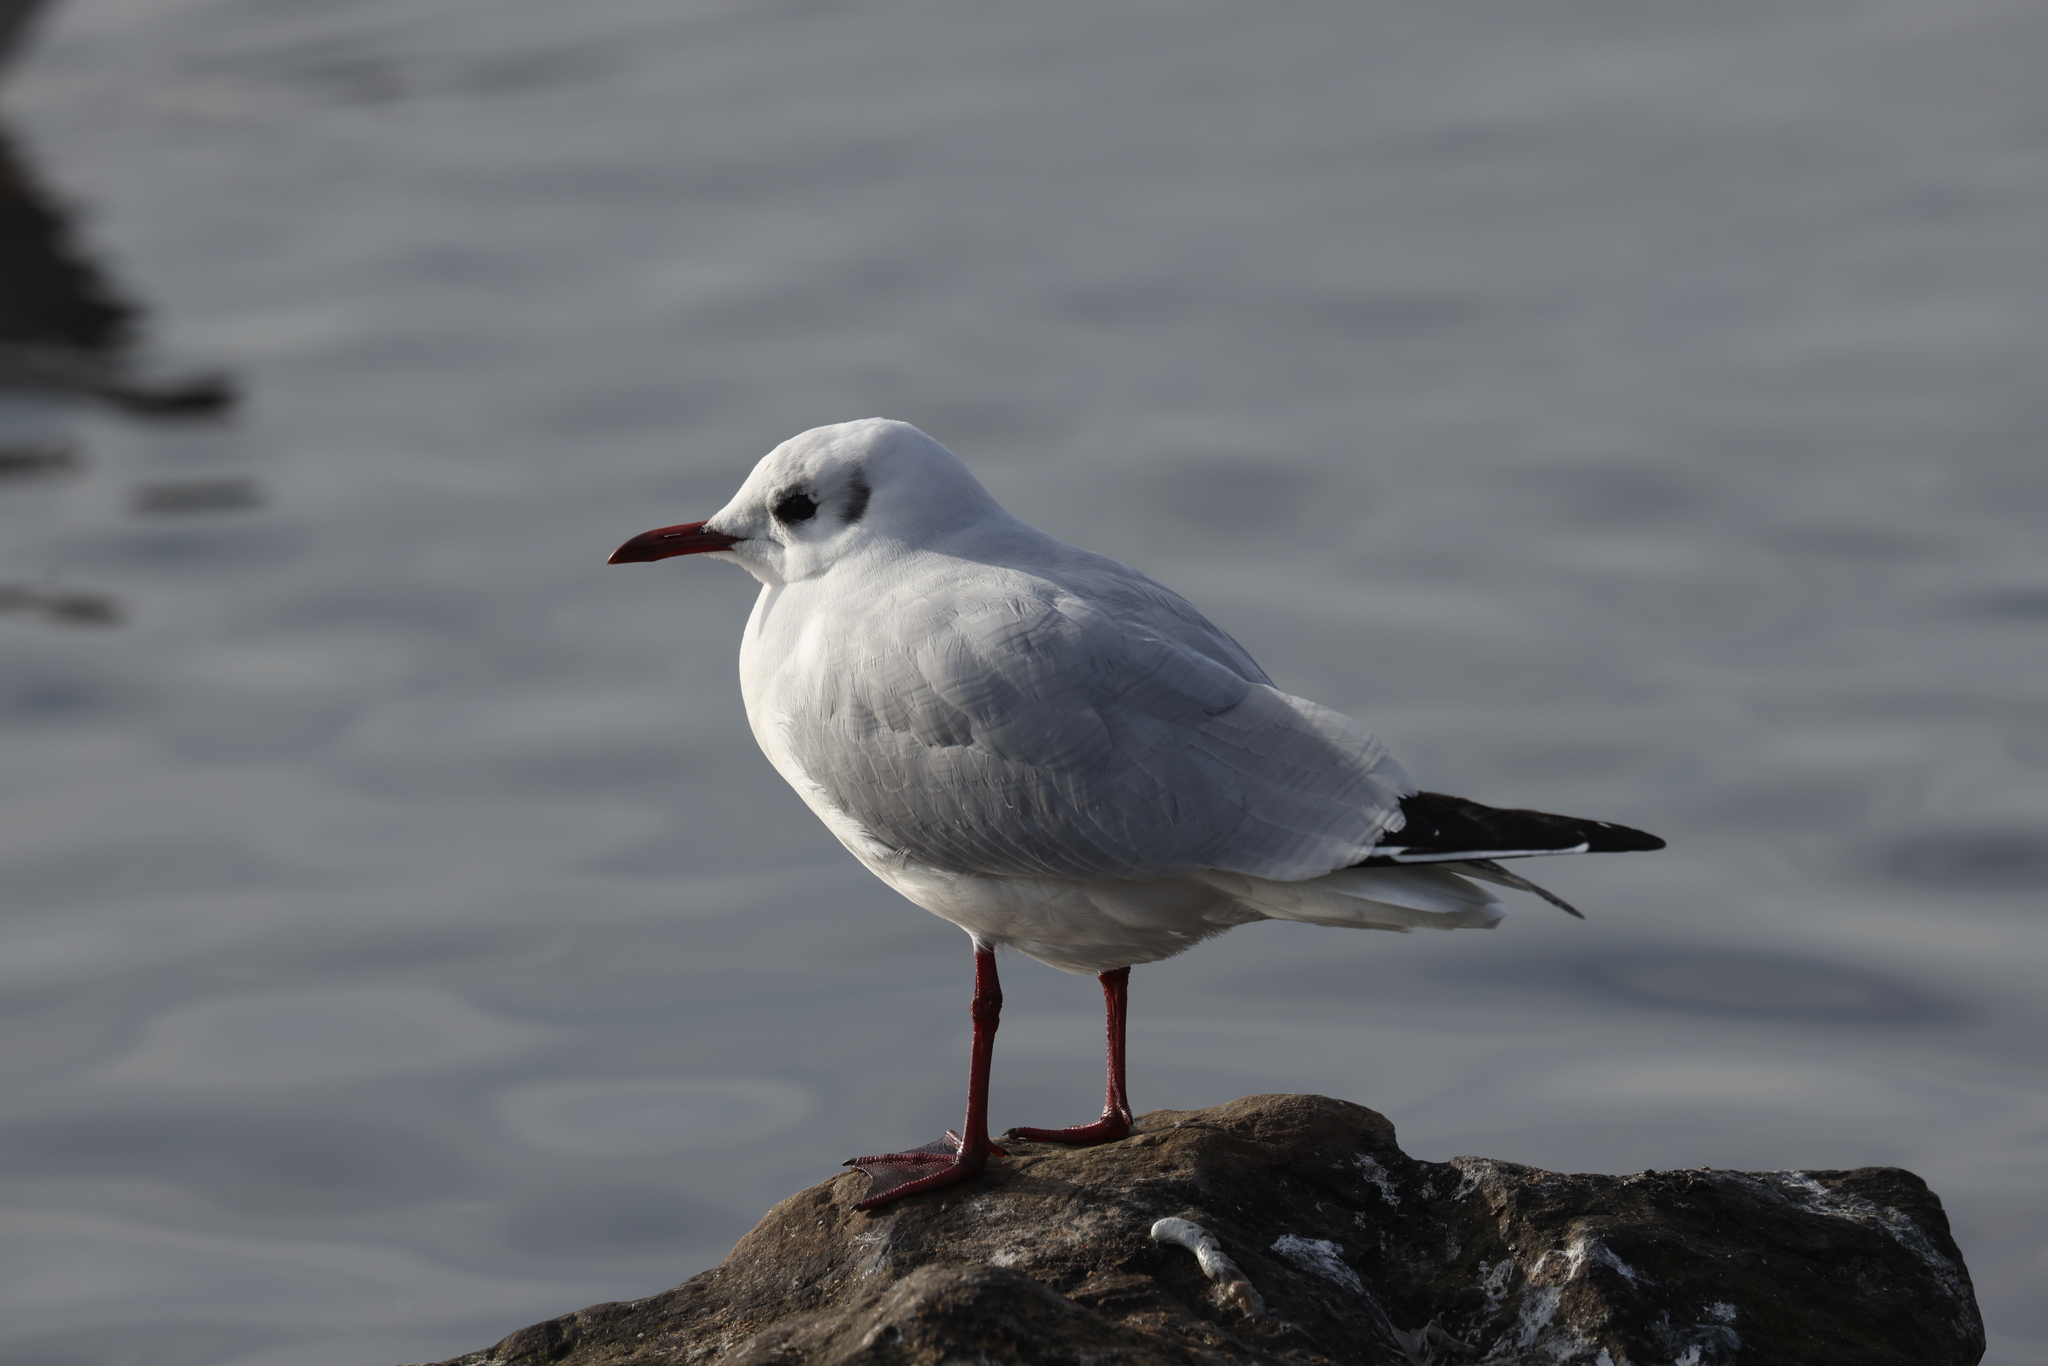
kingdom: Animalia
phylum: Chordata
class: Aves
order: Charadriiformes
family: Laridae
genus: Chroicocephalus
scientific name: Chroicocephalus ridibundus
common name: Black-headed gull
